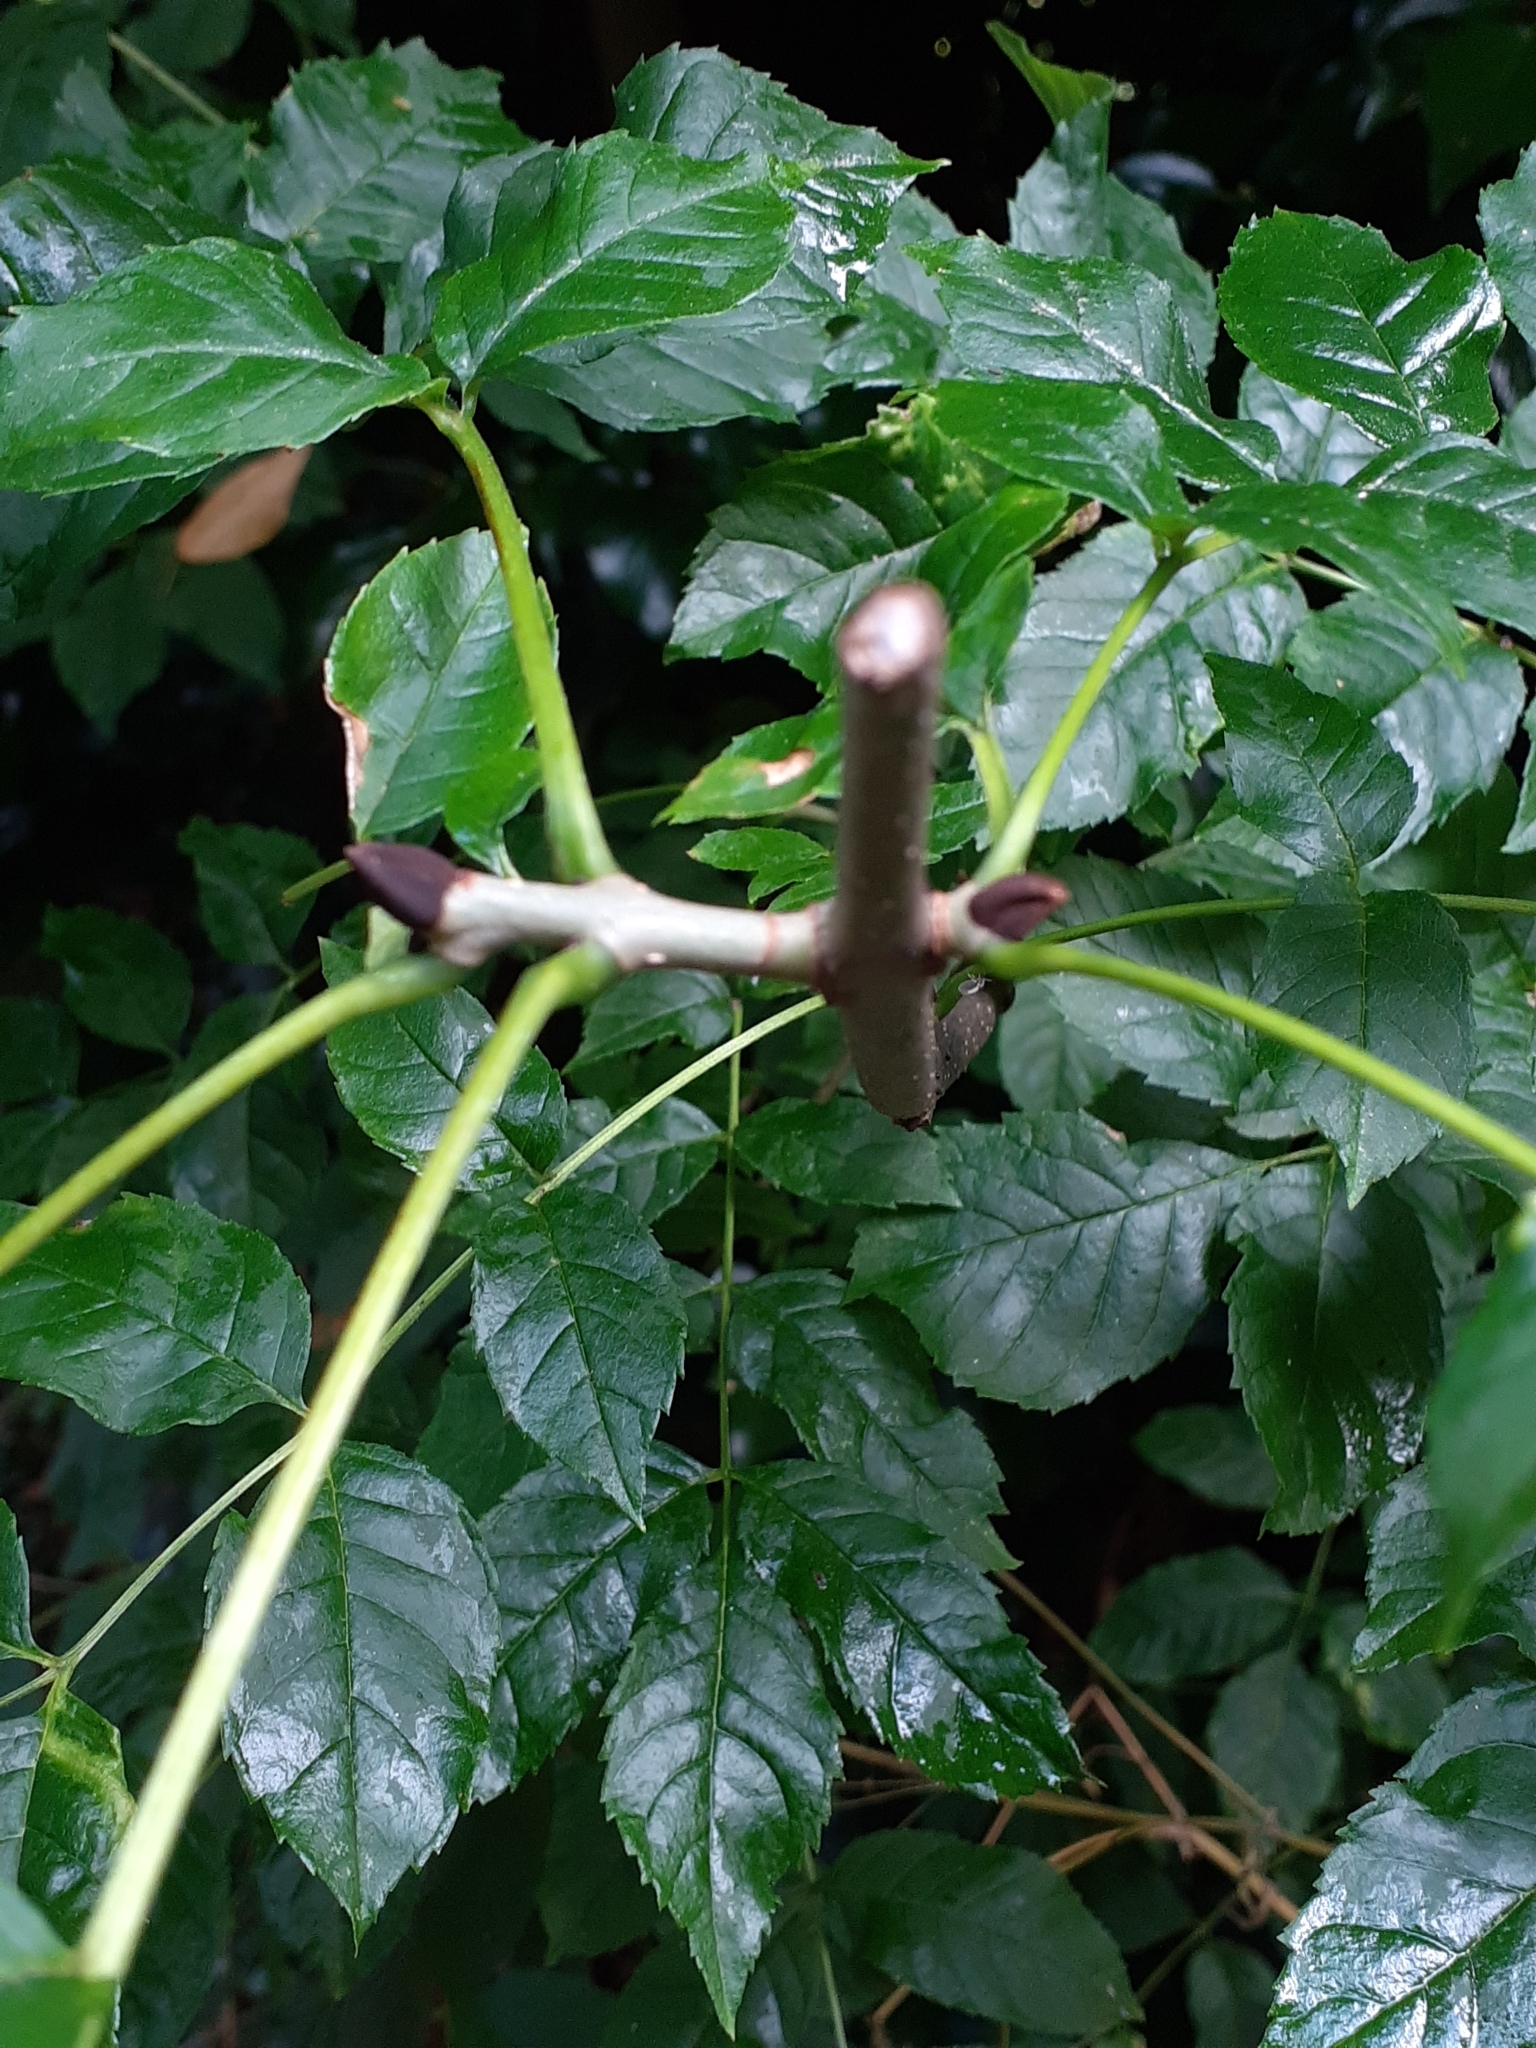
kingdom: Plantae
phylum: Tracheophyta
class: Magnoliopsida
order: Lamiales
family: Oleaceae
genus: Fraxinus
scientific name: Fraxinus excelsior
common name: European ash
